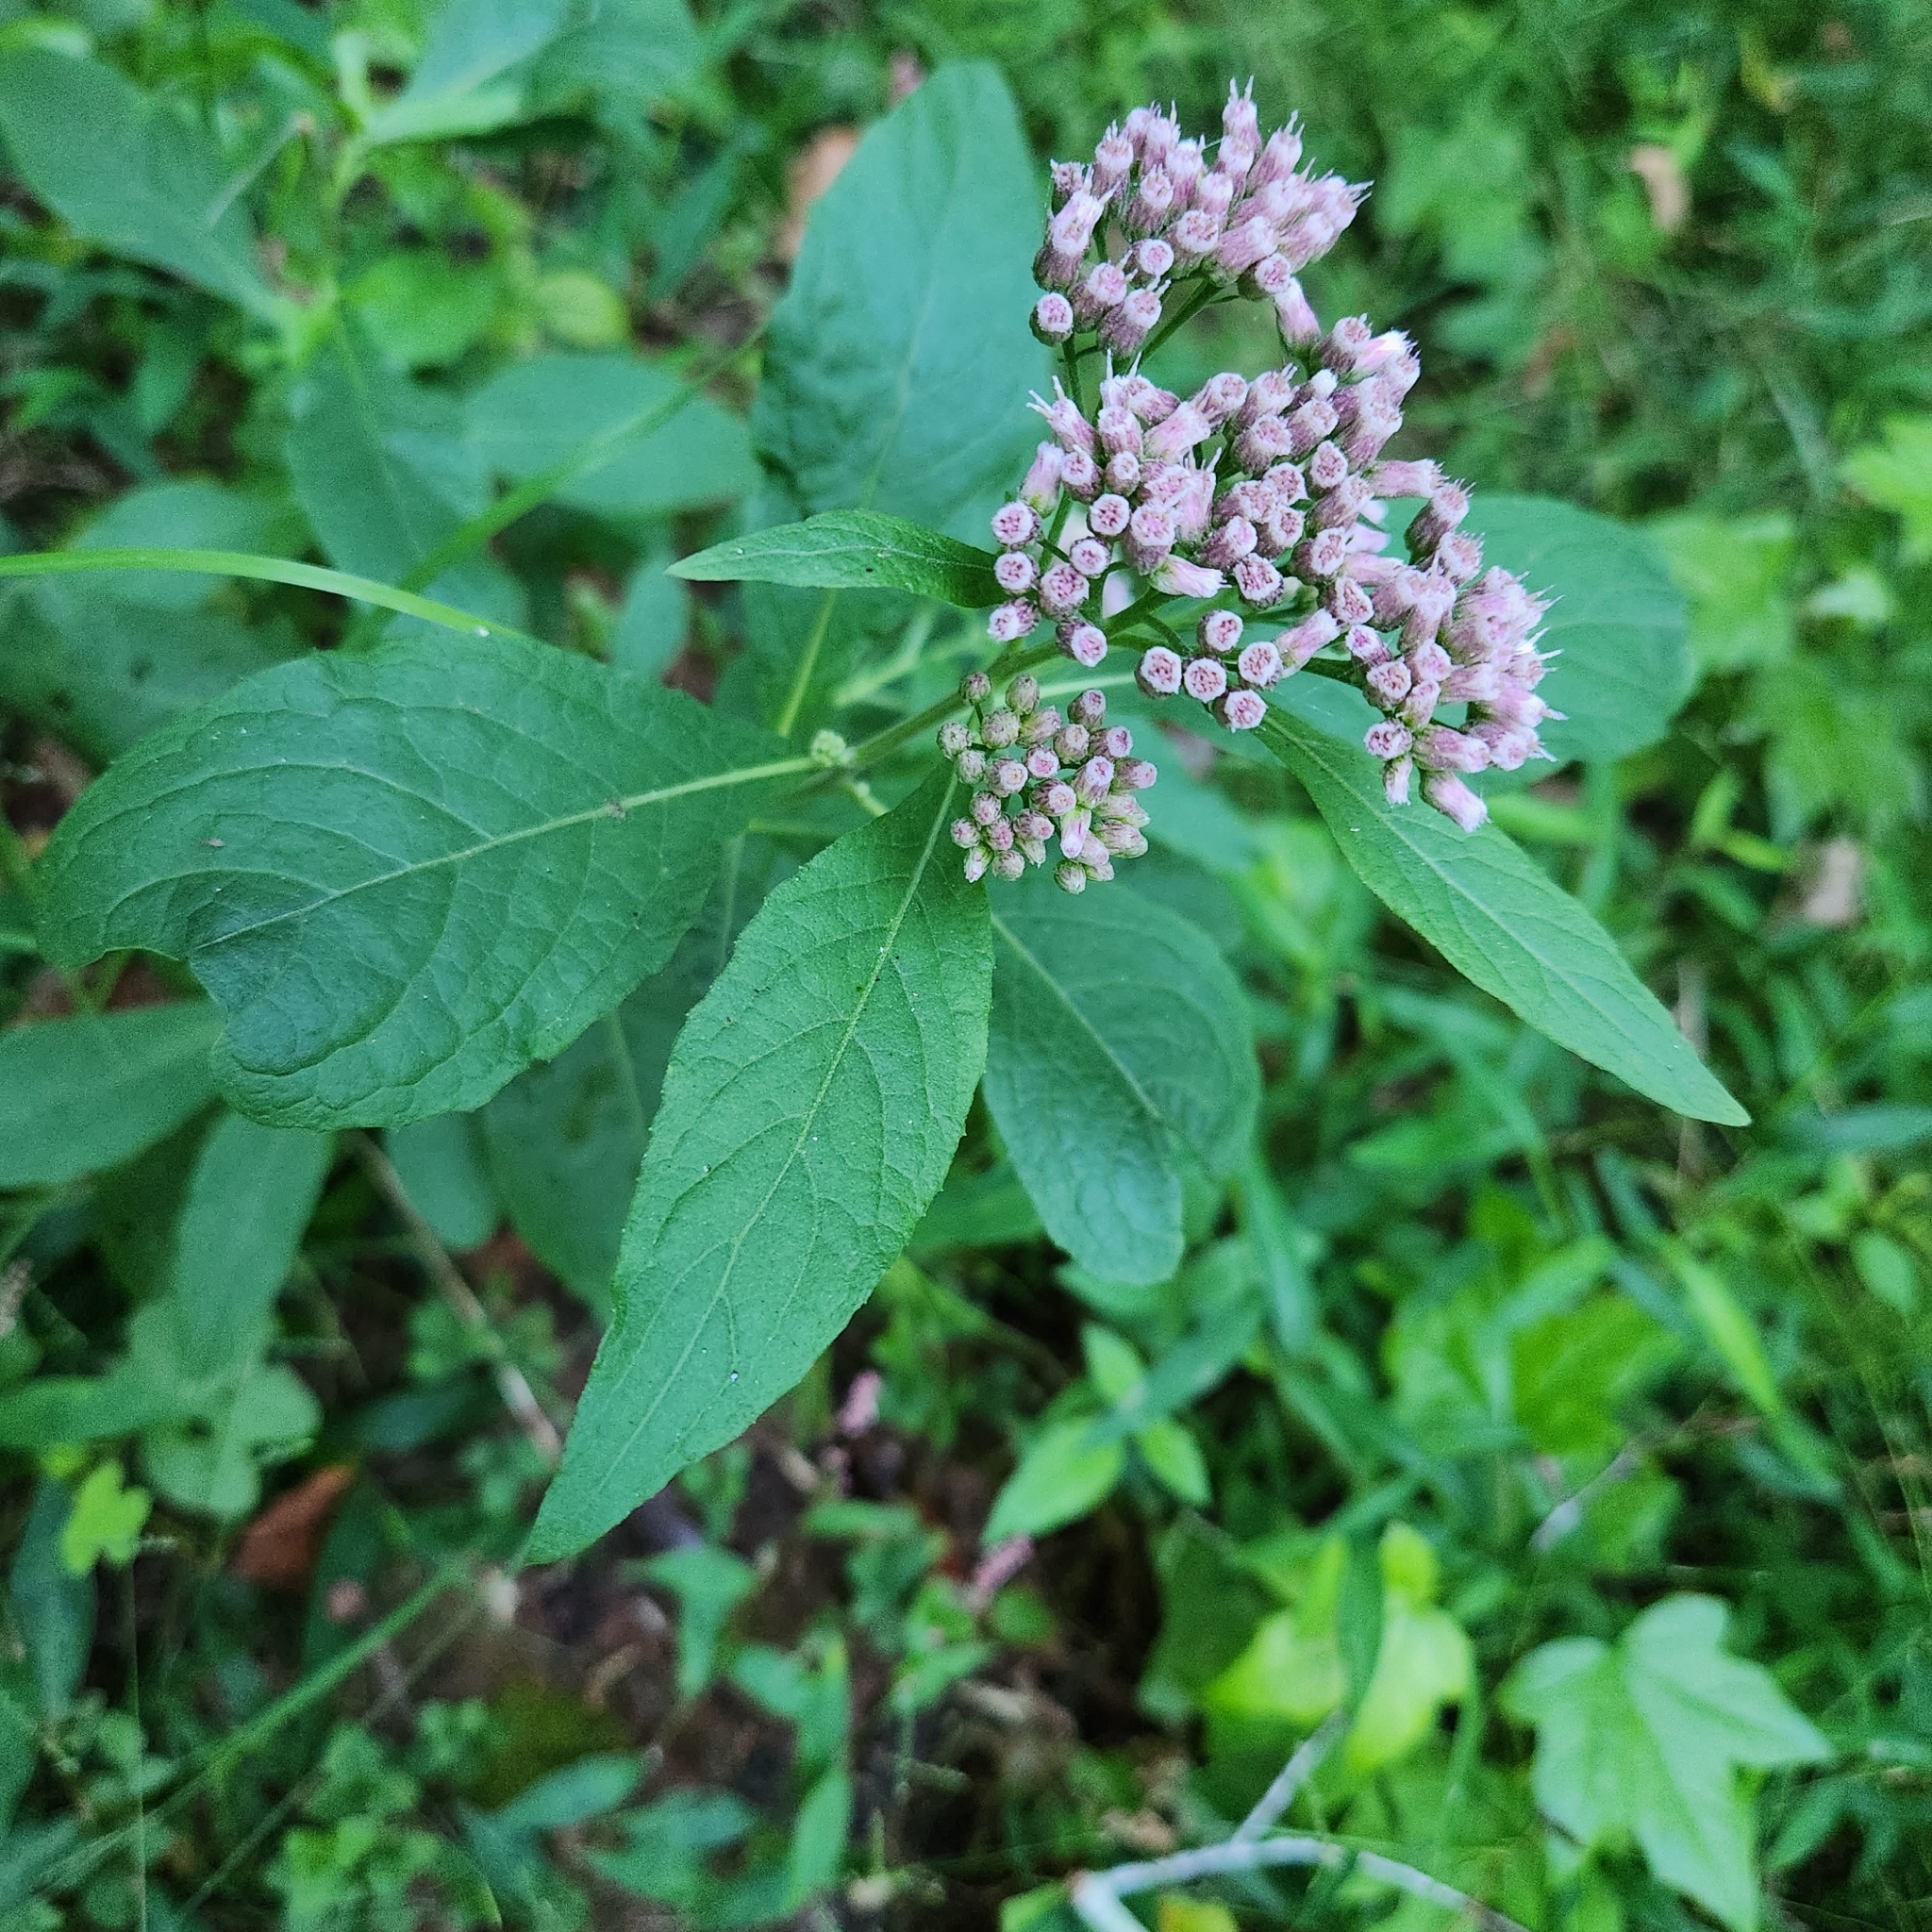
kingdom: Plantae
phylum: Tracheophyta
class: Magnoliopsida
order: Asterales
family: Asteraceae
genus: Pluchea
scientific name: Pluchea camphorata
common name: Camphor pluchea
